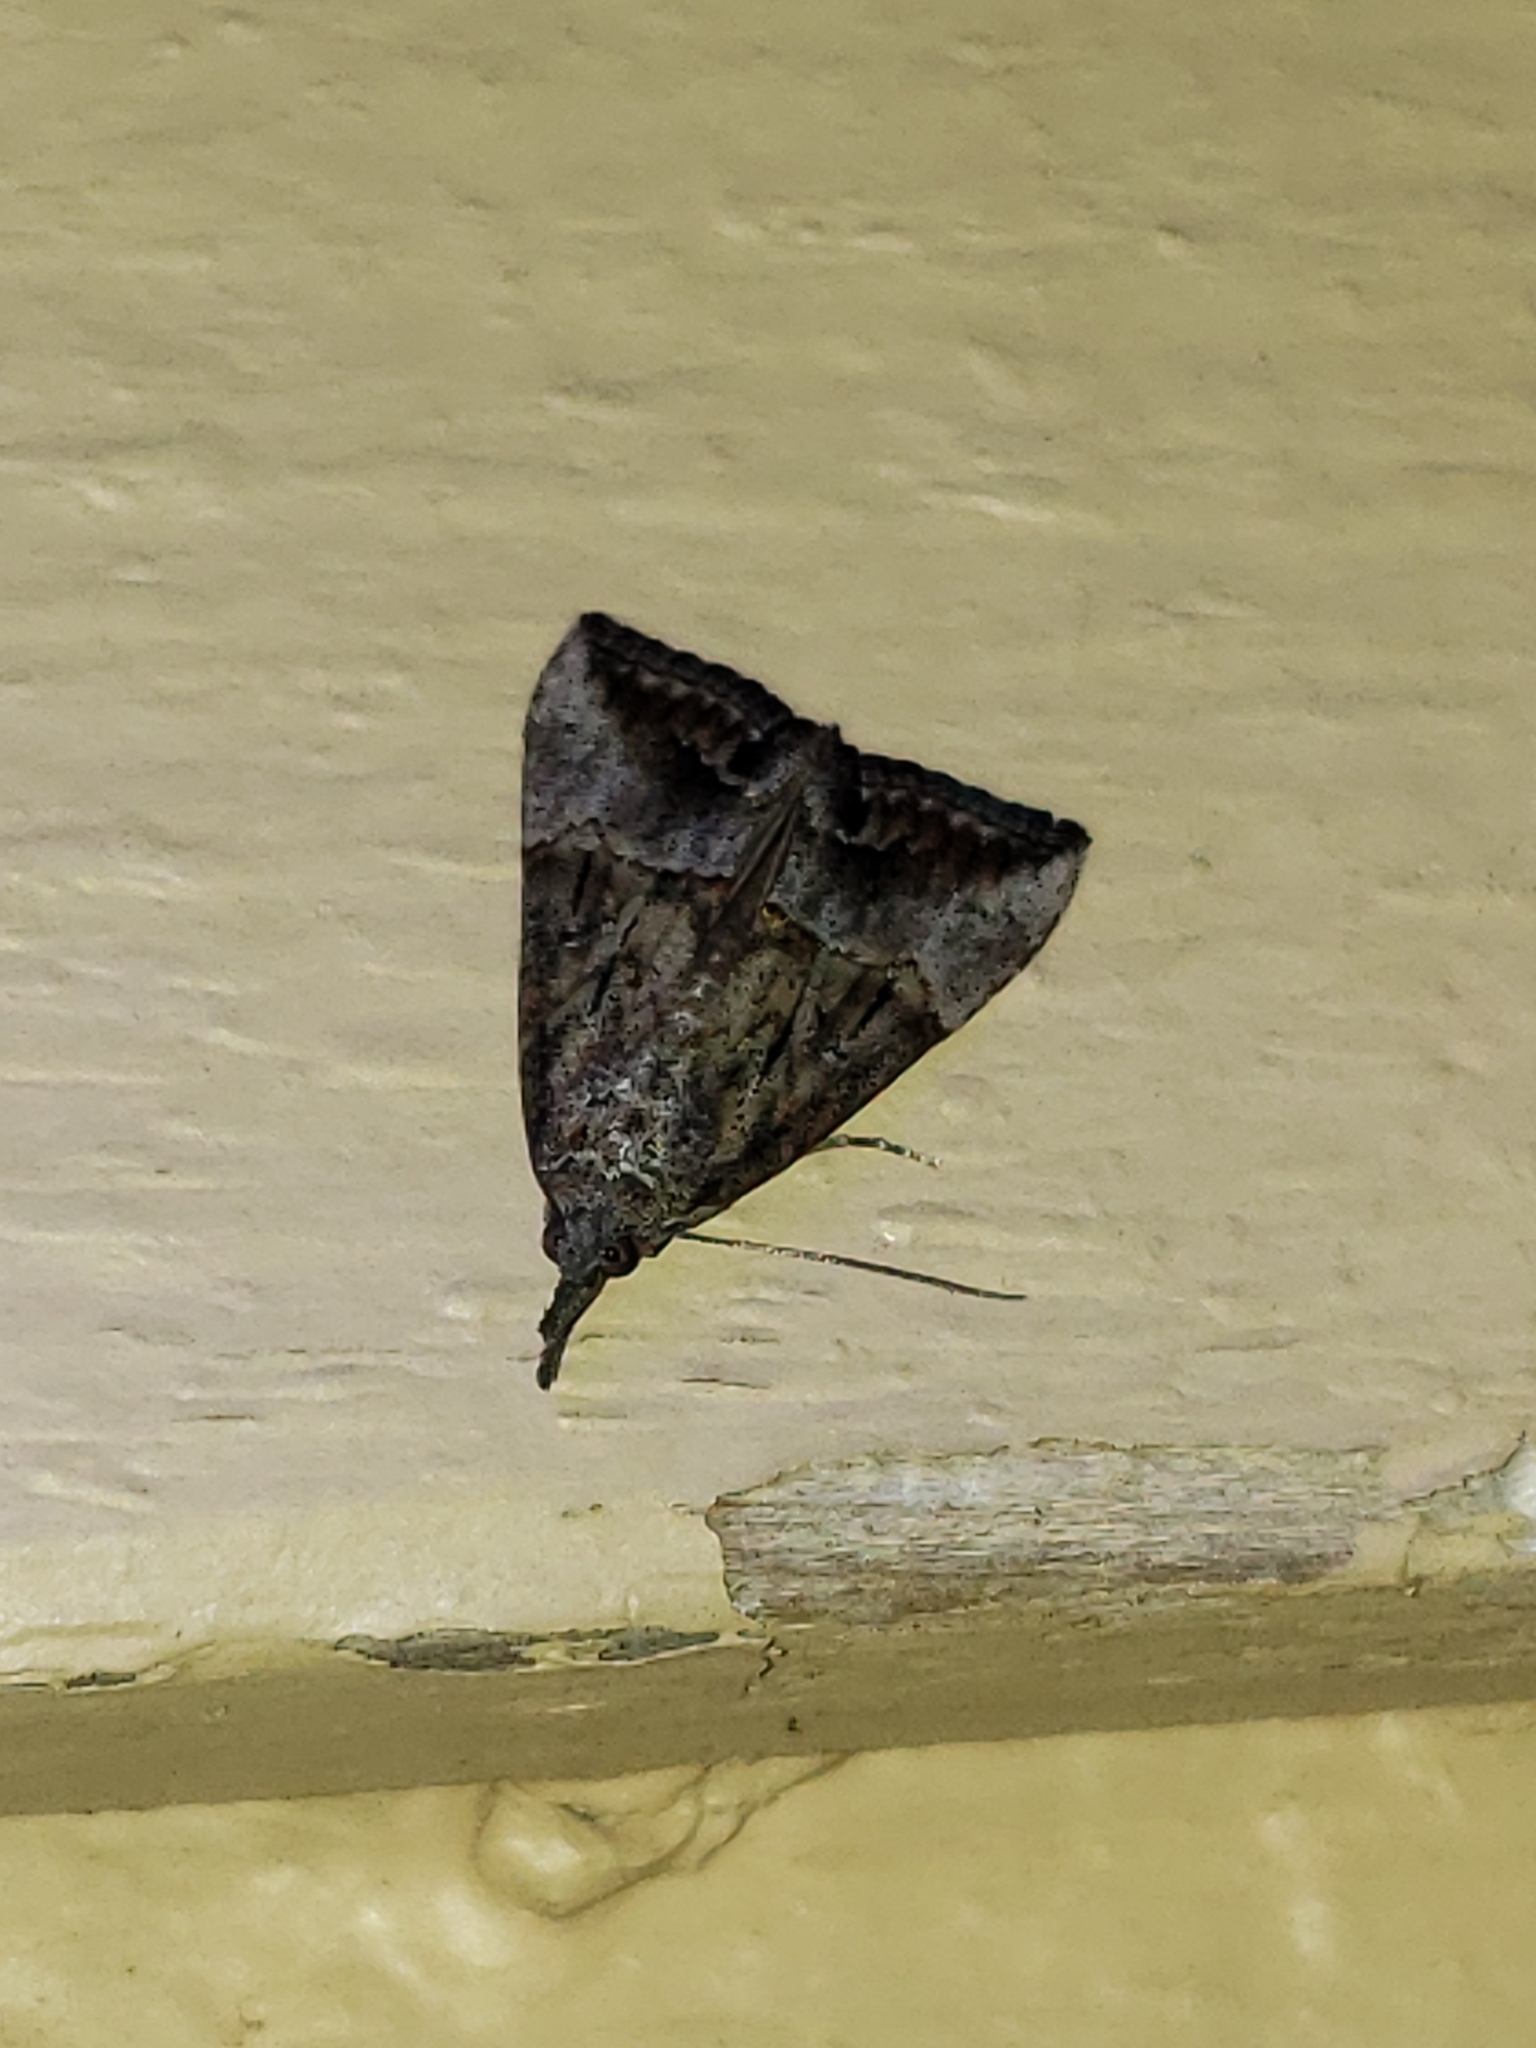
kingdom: Animalia
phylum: Arthropoda
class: Insecta
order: Lepidoptera
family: Erebidae
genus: Hypena
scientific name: Hypena scabra
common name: Green cloverworm
